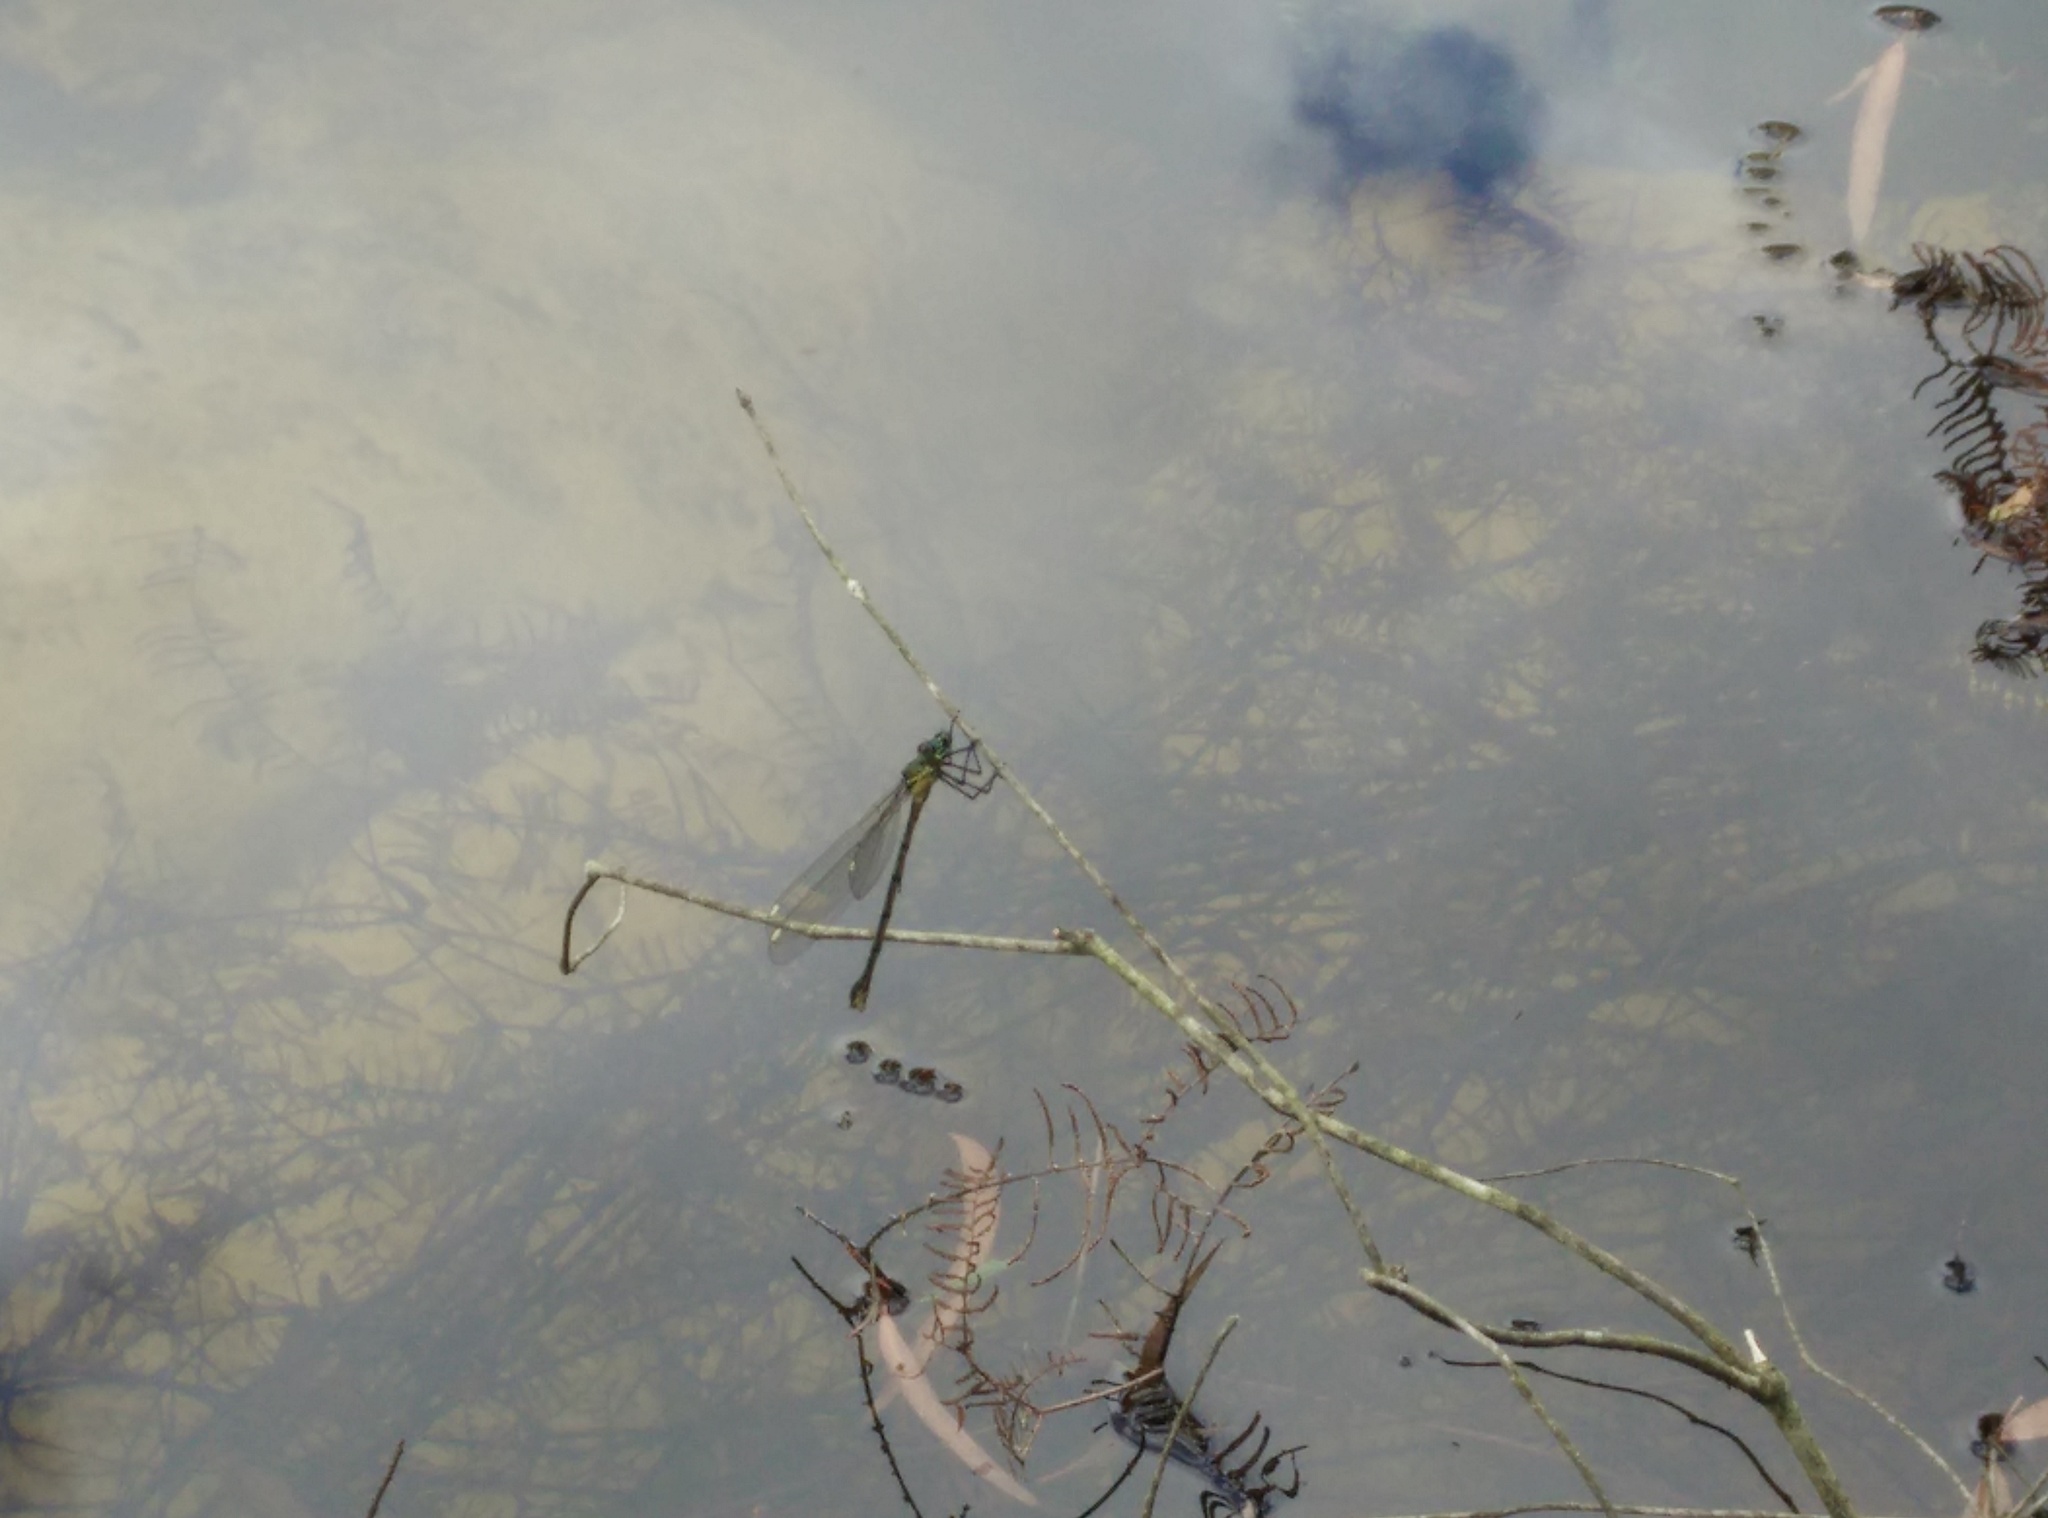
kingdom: Animalia
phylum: Arthropoda
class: Insecta
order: Odonata
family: Synlestidae
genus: Synlestes
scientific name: Synlestes weyersii
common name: Bronze needle
